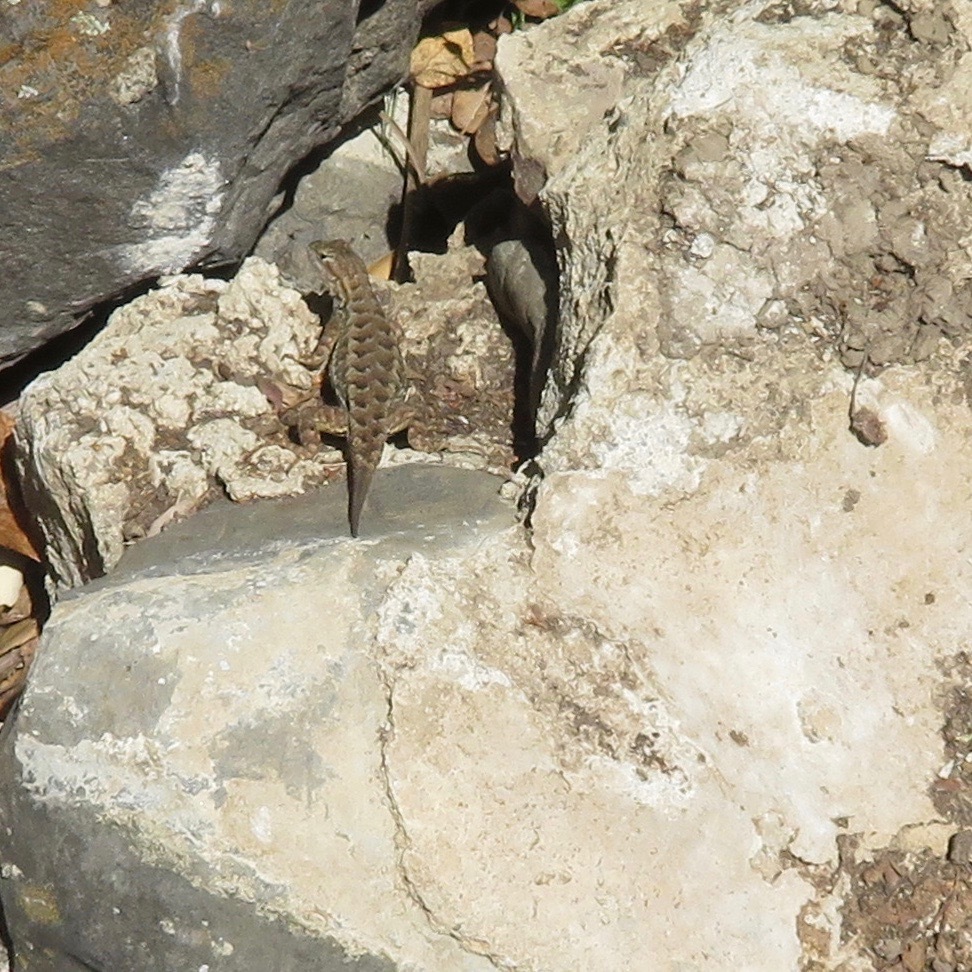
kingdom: Animalia
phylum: Chordata
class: Squamata
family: Phrynosomatidae
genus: Sceloporus
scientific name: Sceloporus occidentalis
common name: Western fence lizard
